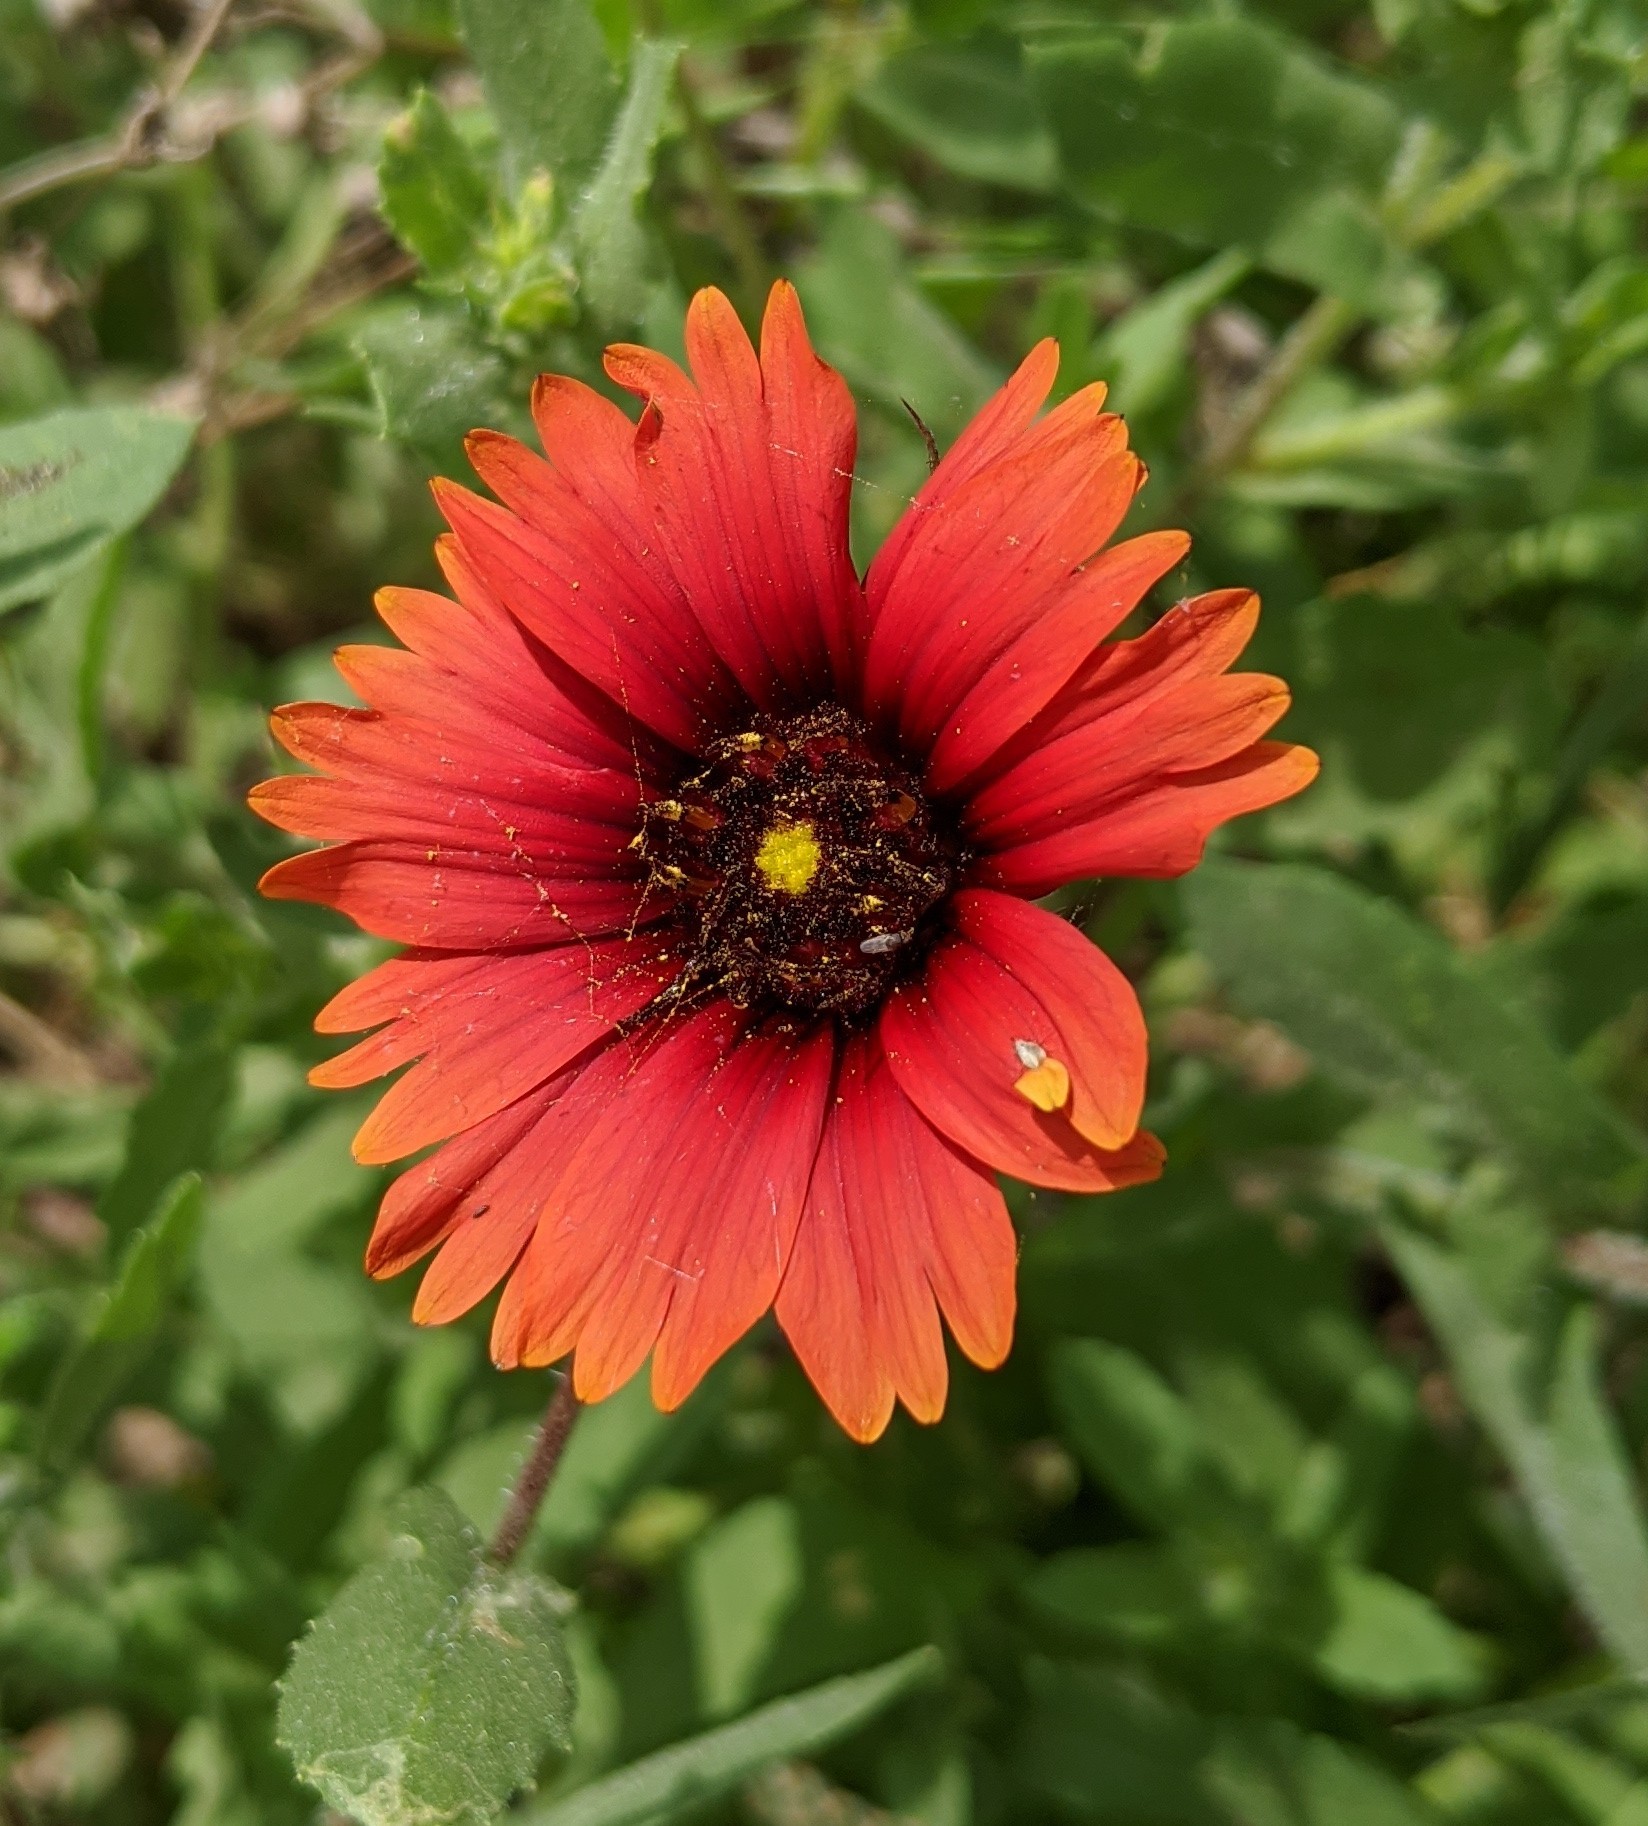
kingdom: Plantae
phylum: Tracheophyta
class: Magnoliopsida
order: Asterales
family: Asteraceae
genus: Gaillardia
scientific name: Gaillardia amblyodon
